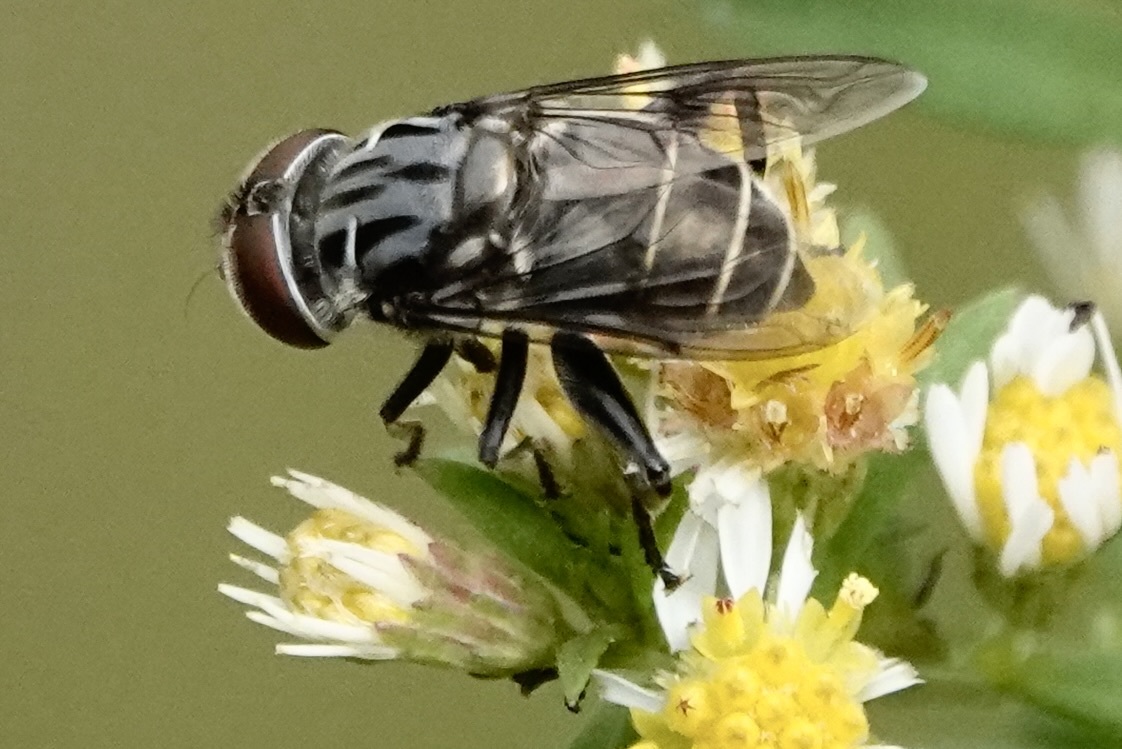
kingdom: Animalia
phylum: Arthropoda
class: Insecta
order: Diptera
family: Syrphidae
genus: Palpada
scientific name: Palpada furcata
